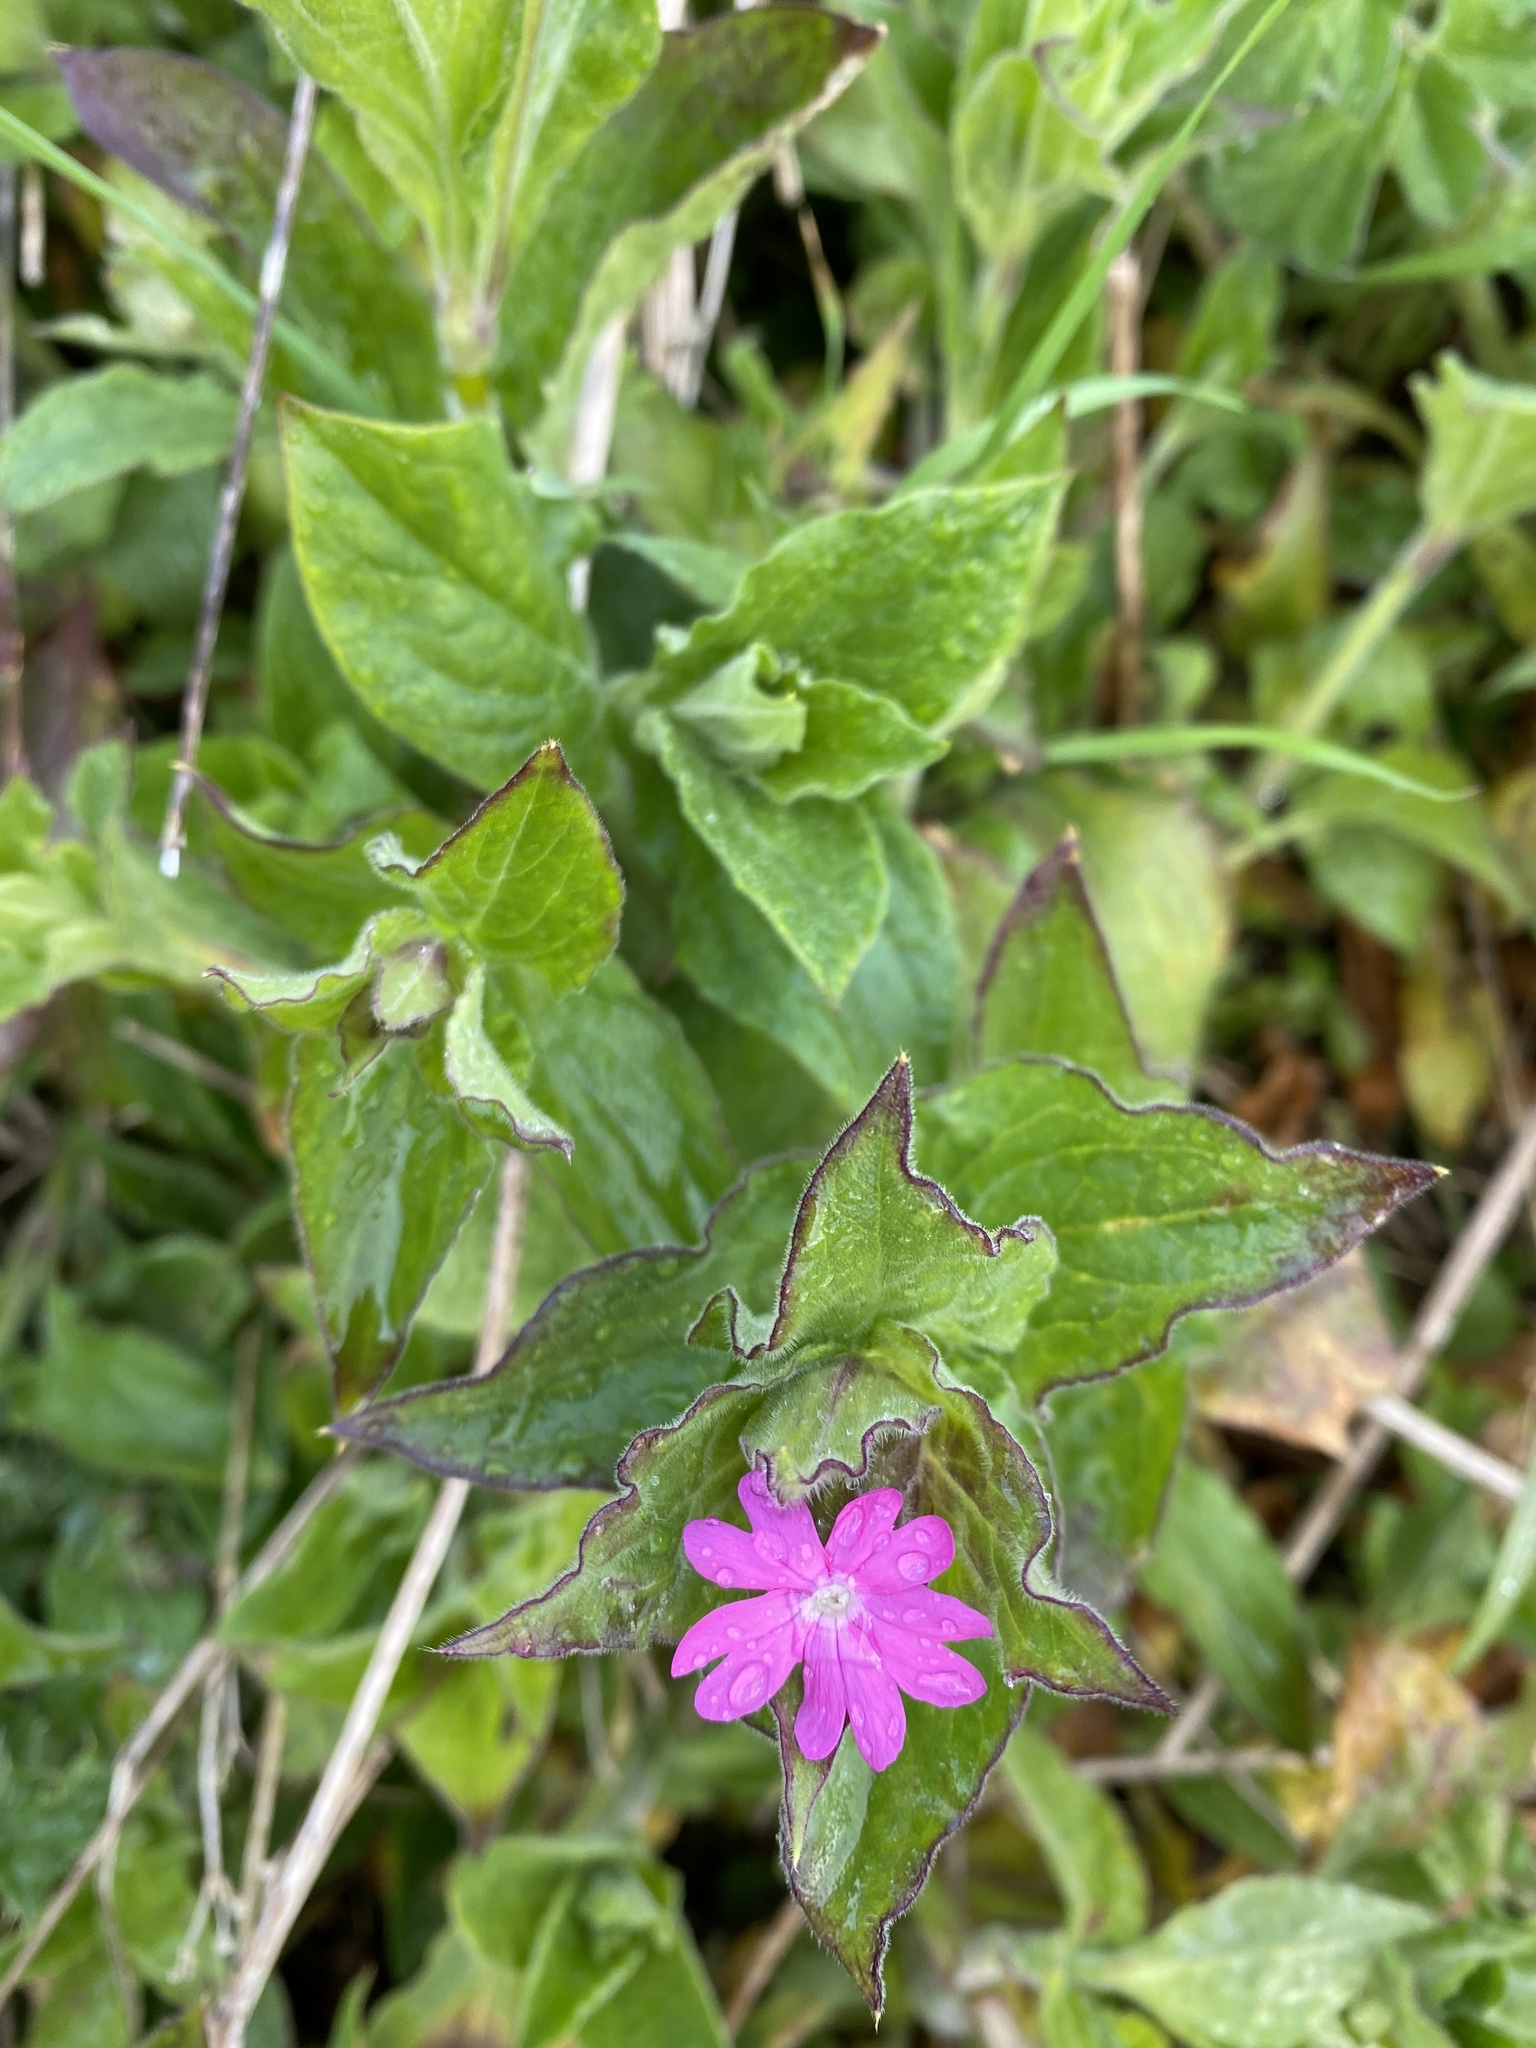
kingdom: Plantae
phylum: Tracheophyta
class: Magnoliopsida
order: Caryophyllales
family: Caryophyllaceae
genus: Silene
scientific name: Silene dioica
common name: Red campion
